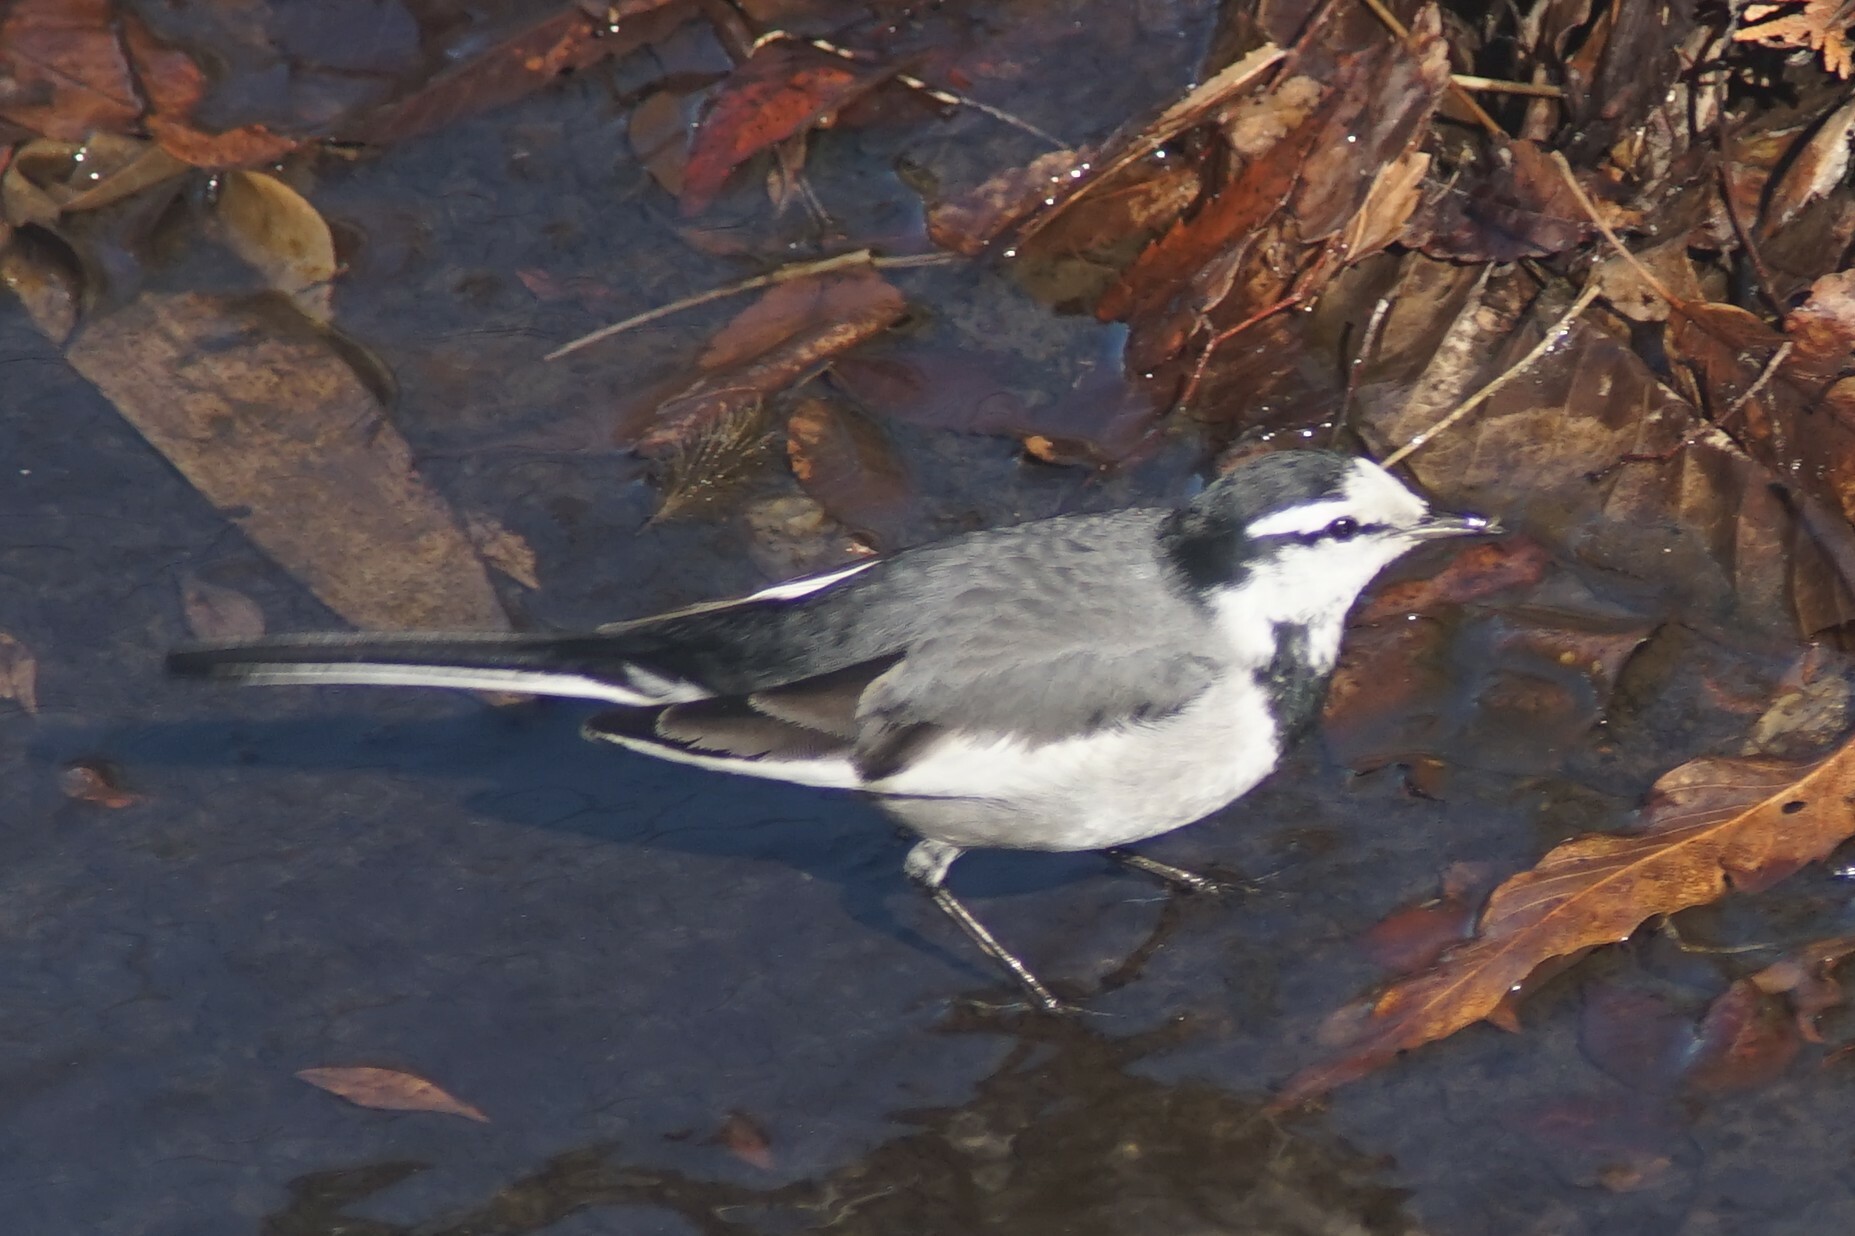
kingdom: Animalia
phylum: Chordata
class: Aves
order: Passeriformes
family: Motacillidae
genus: Motacilla
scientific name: Motacilla alba
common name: White wagtail
